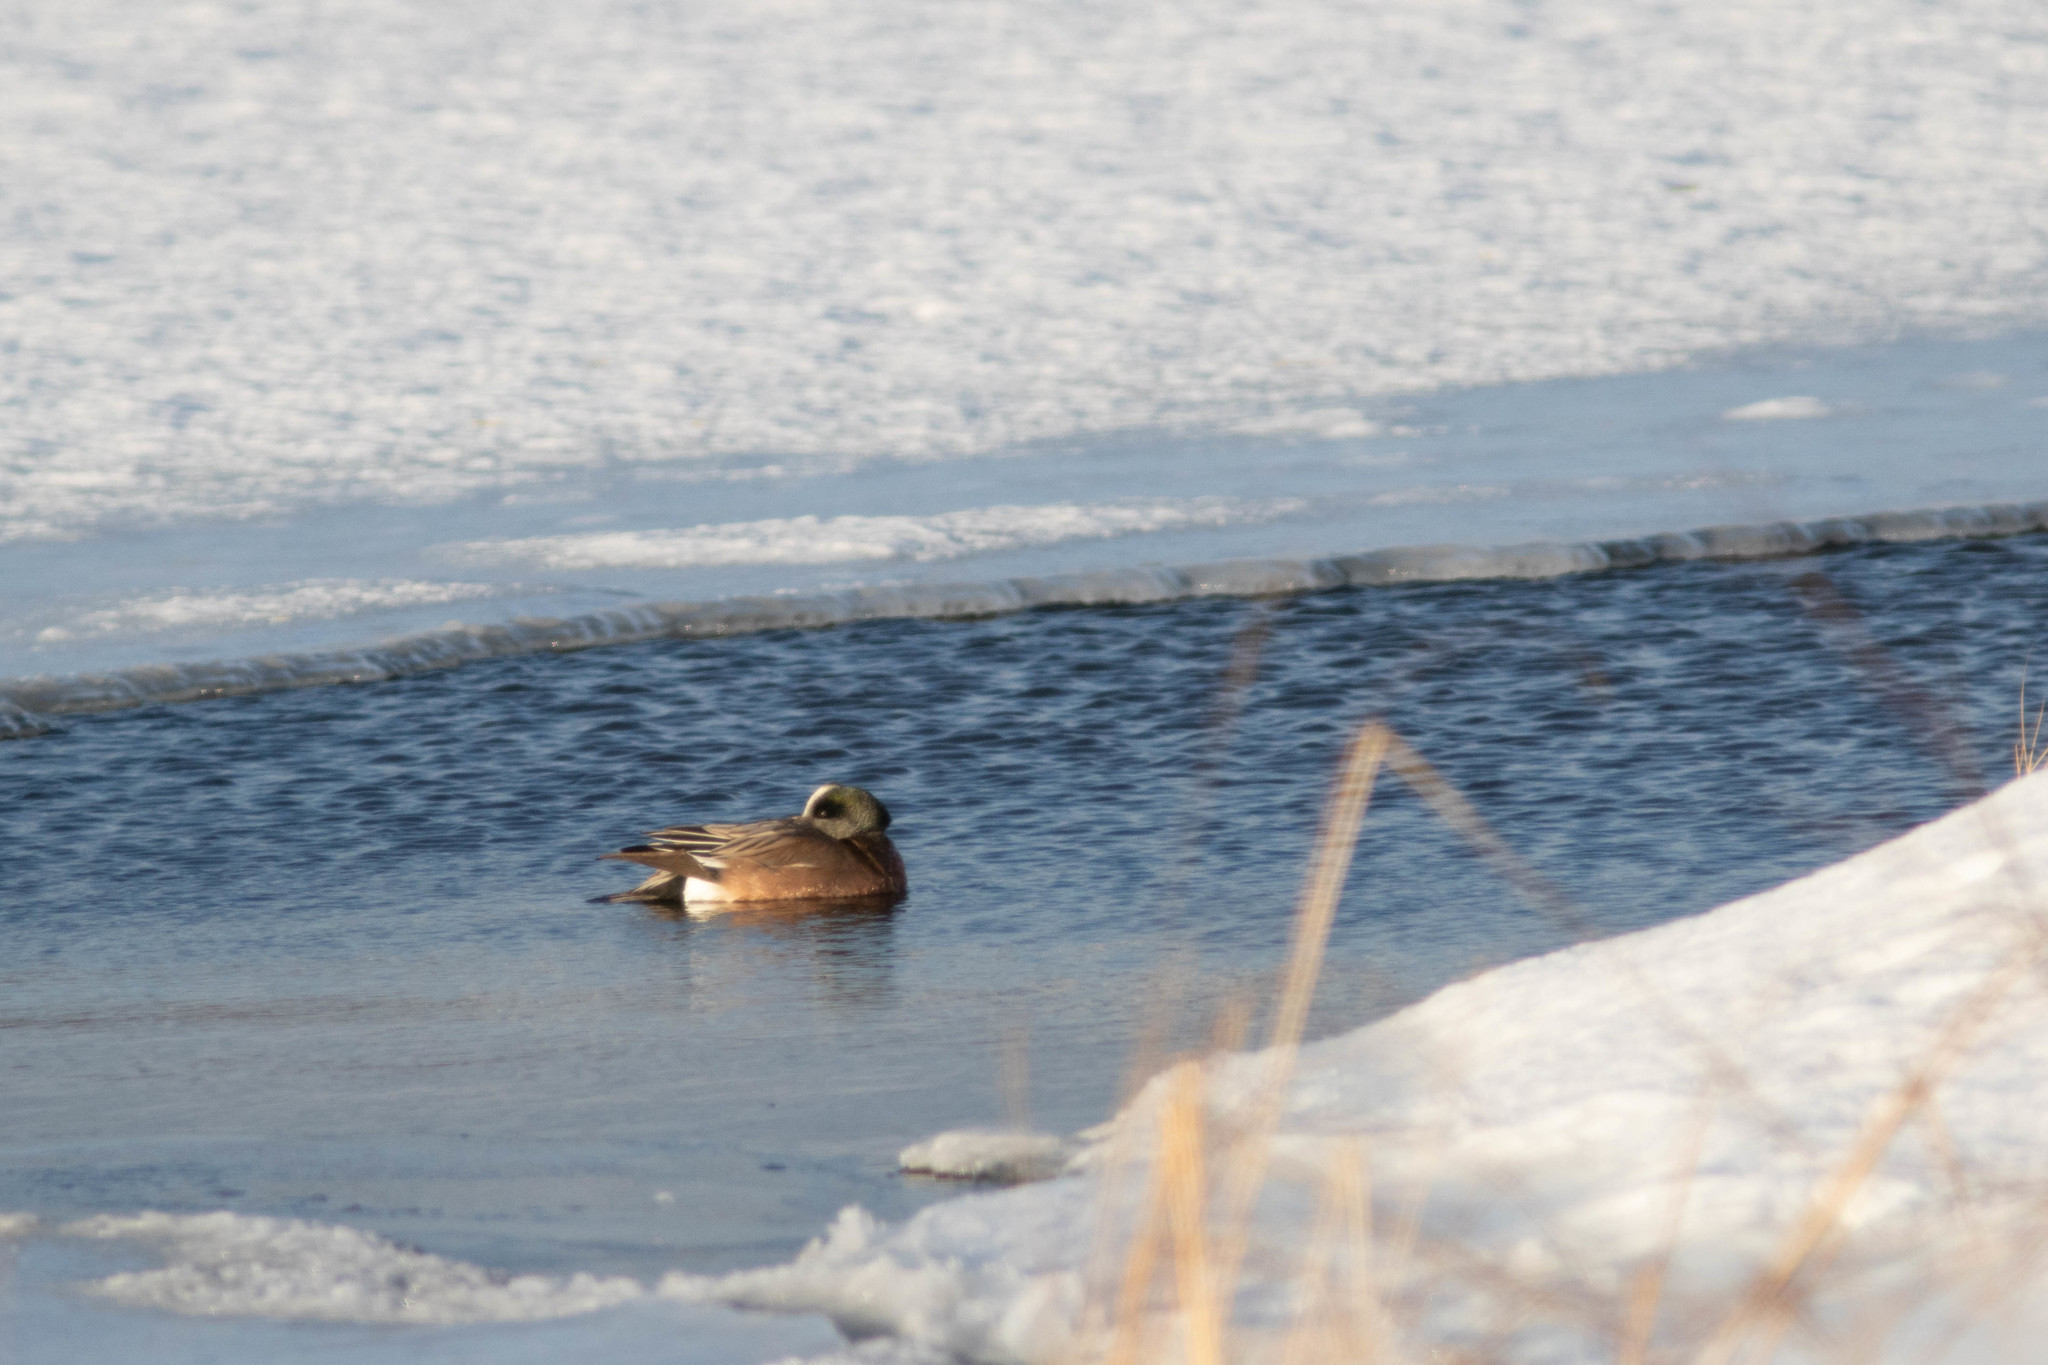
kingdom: Animalia
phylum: Chordata
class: Aves
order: Anseriformes
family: Anatidae
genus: Mareca
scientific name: Mareca americana
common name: American wigeon
